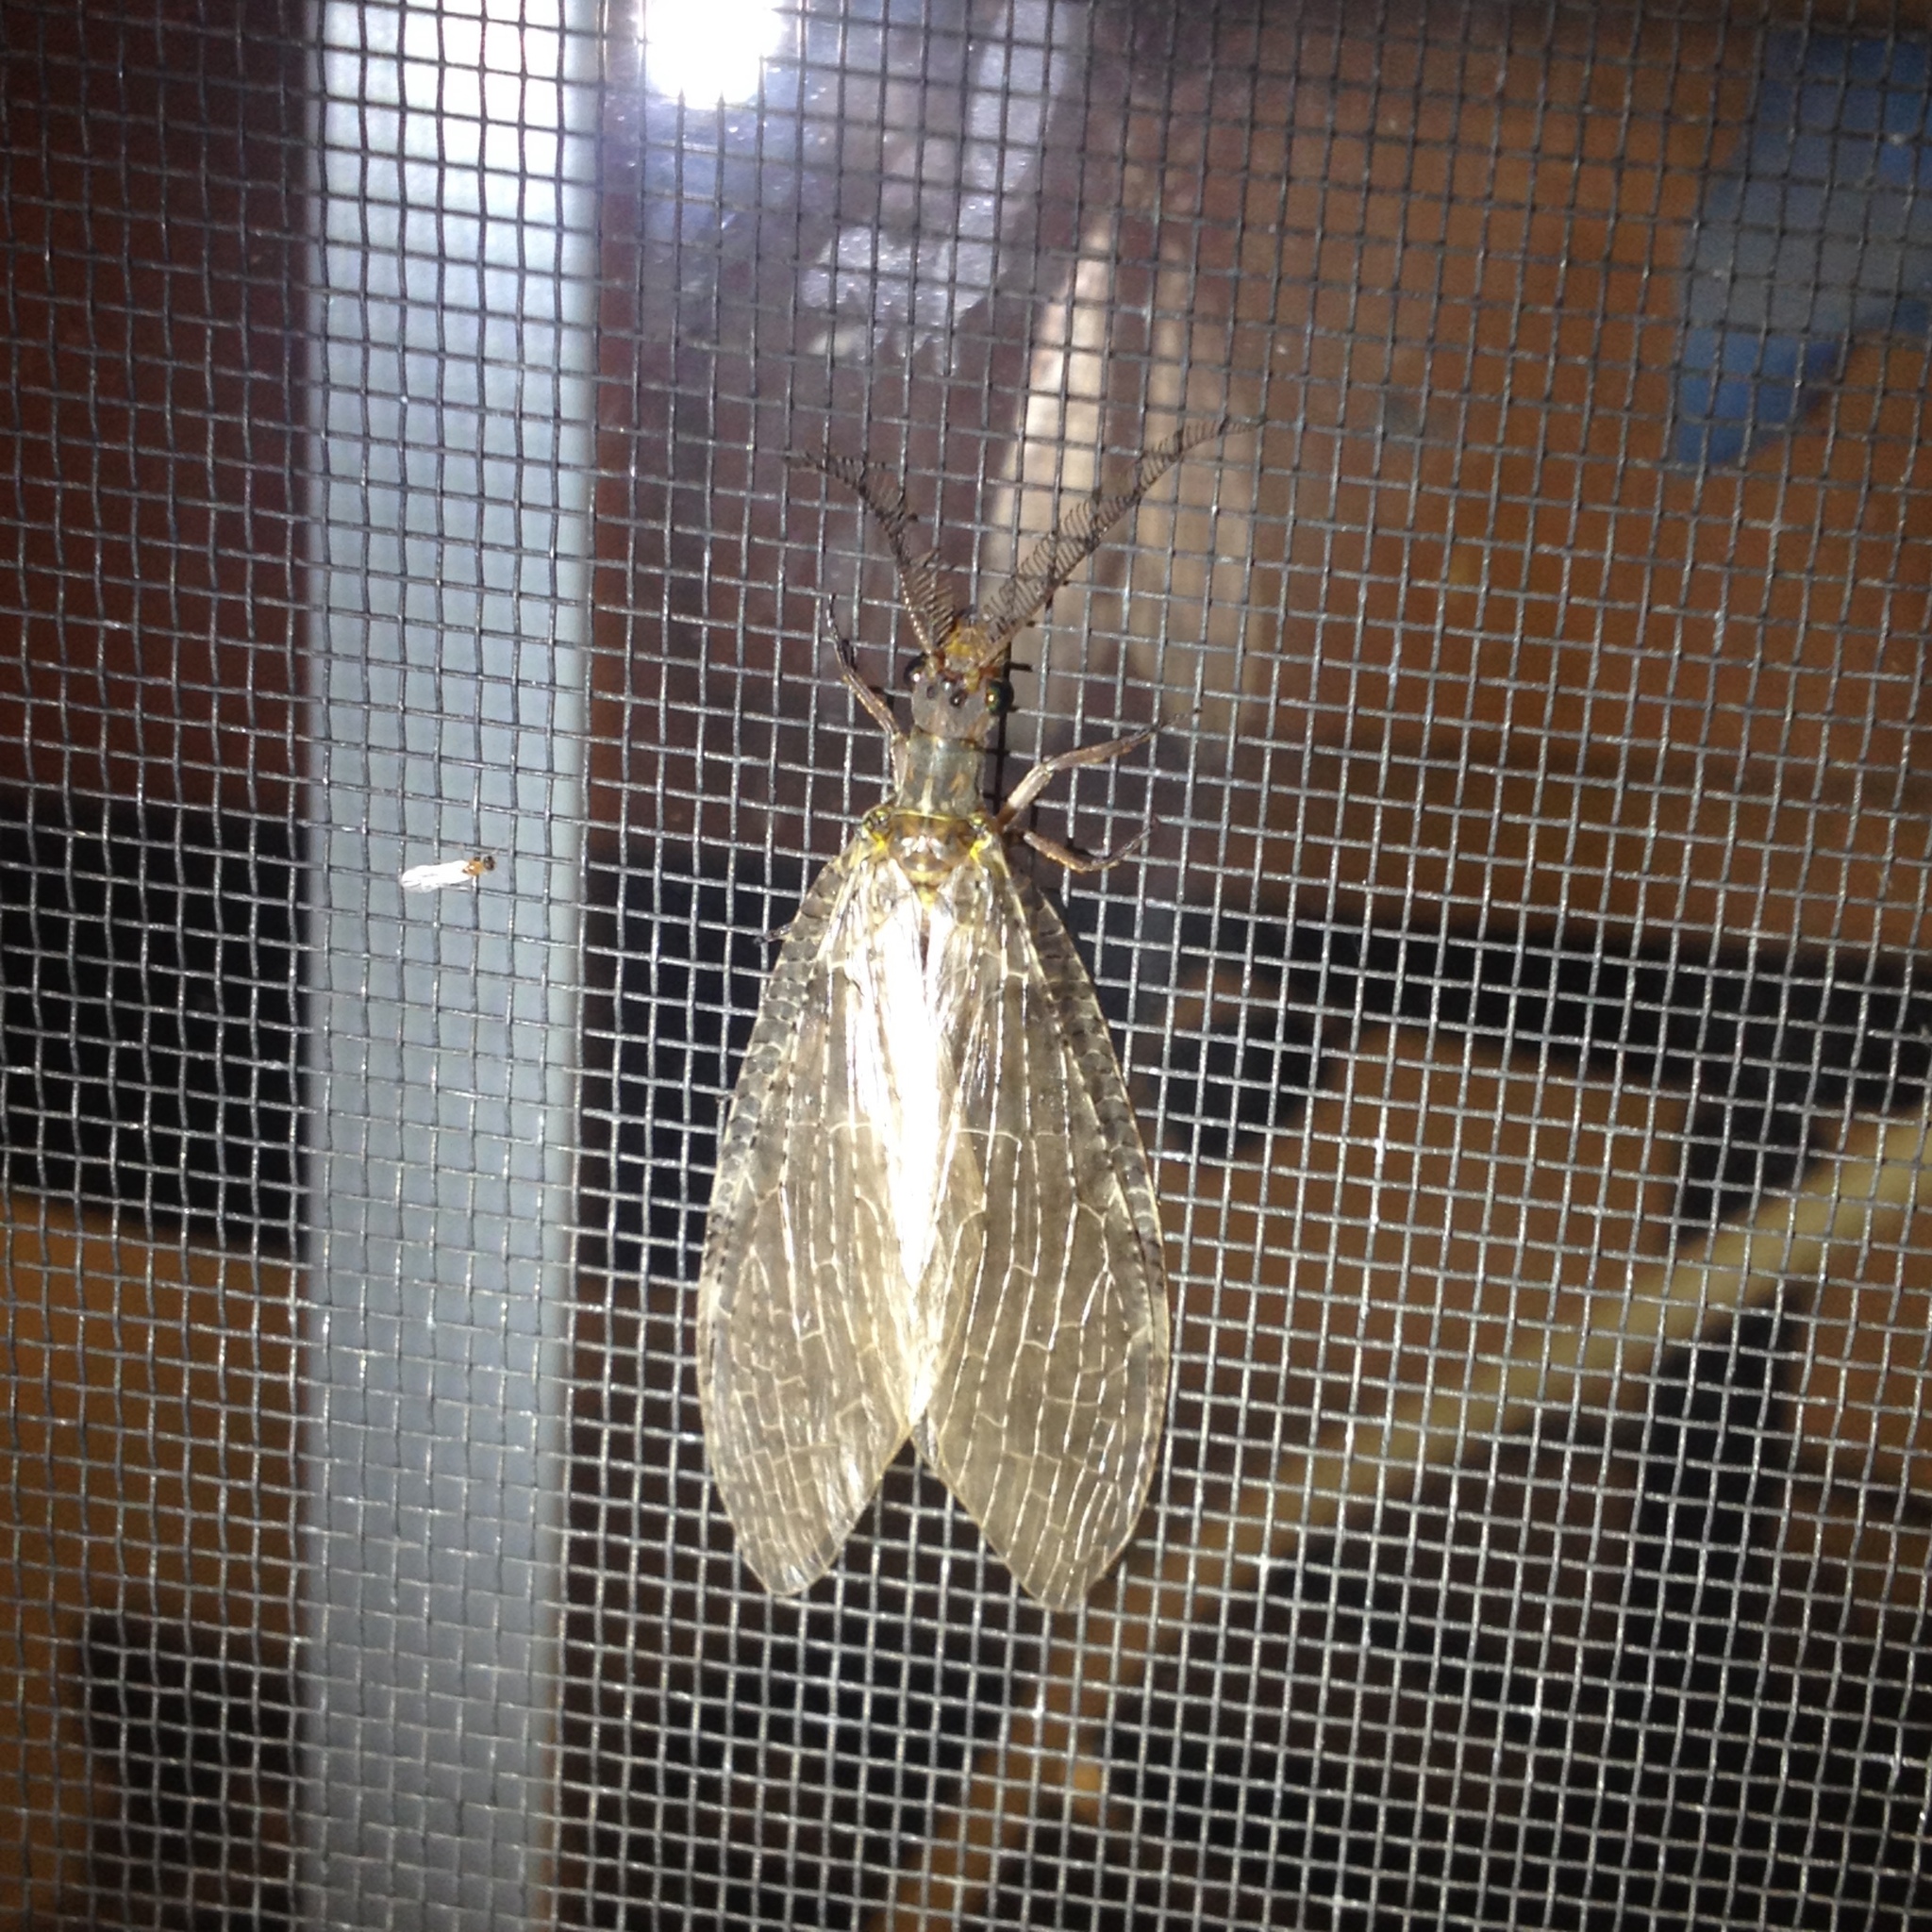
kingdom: Animalia
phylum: Arthropoda
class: Insecta
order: Megaloptera
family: Corydalidae
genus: Chauliodes
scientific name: Chauliodes pectinicornis
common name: Summer fishfly
